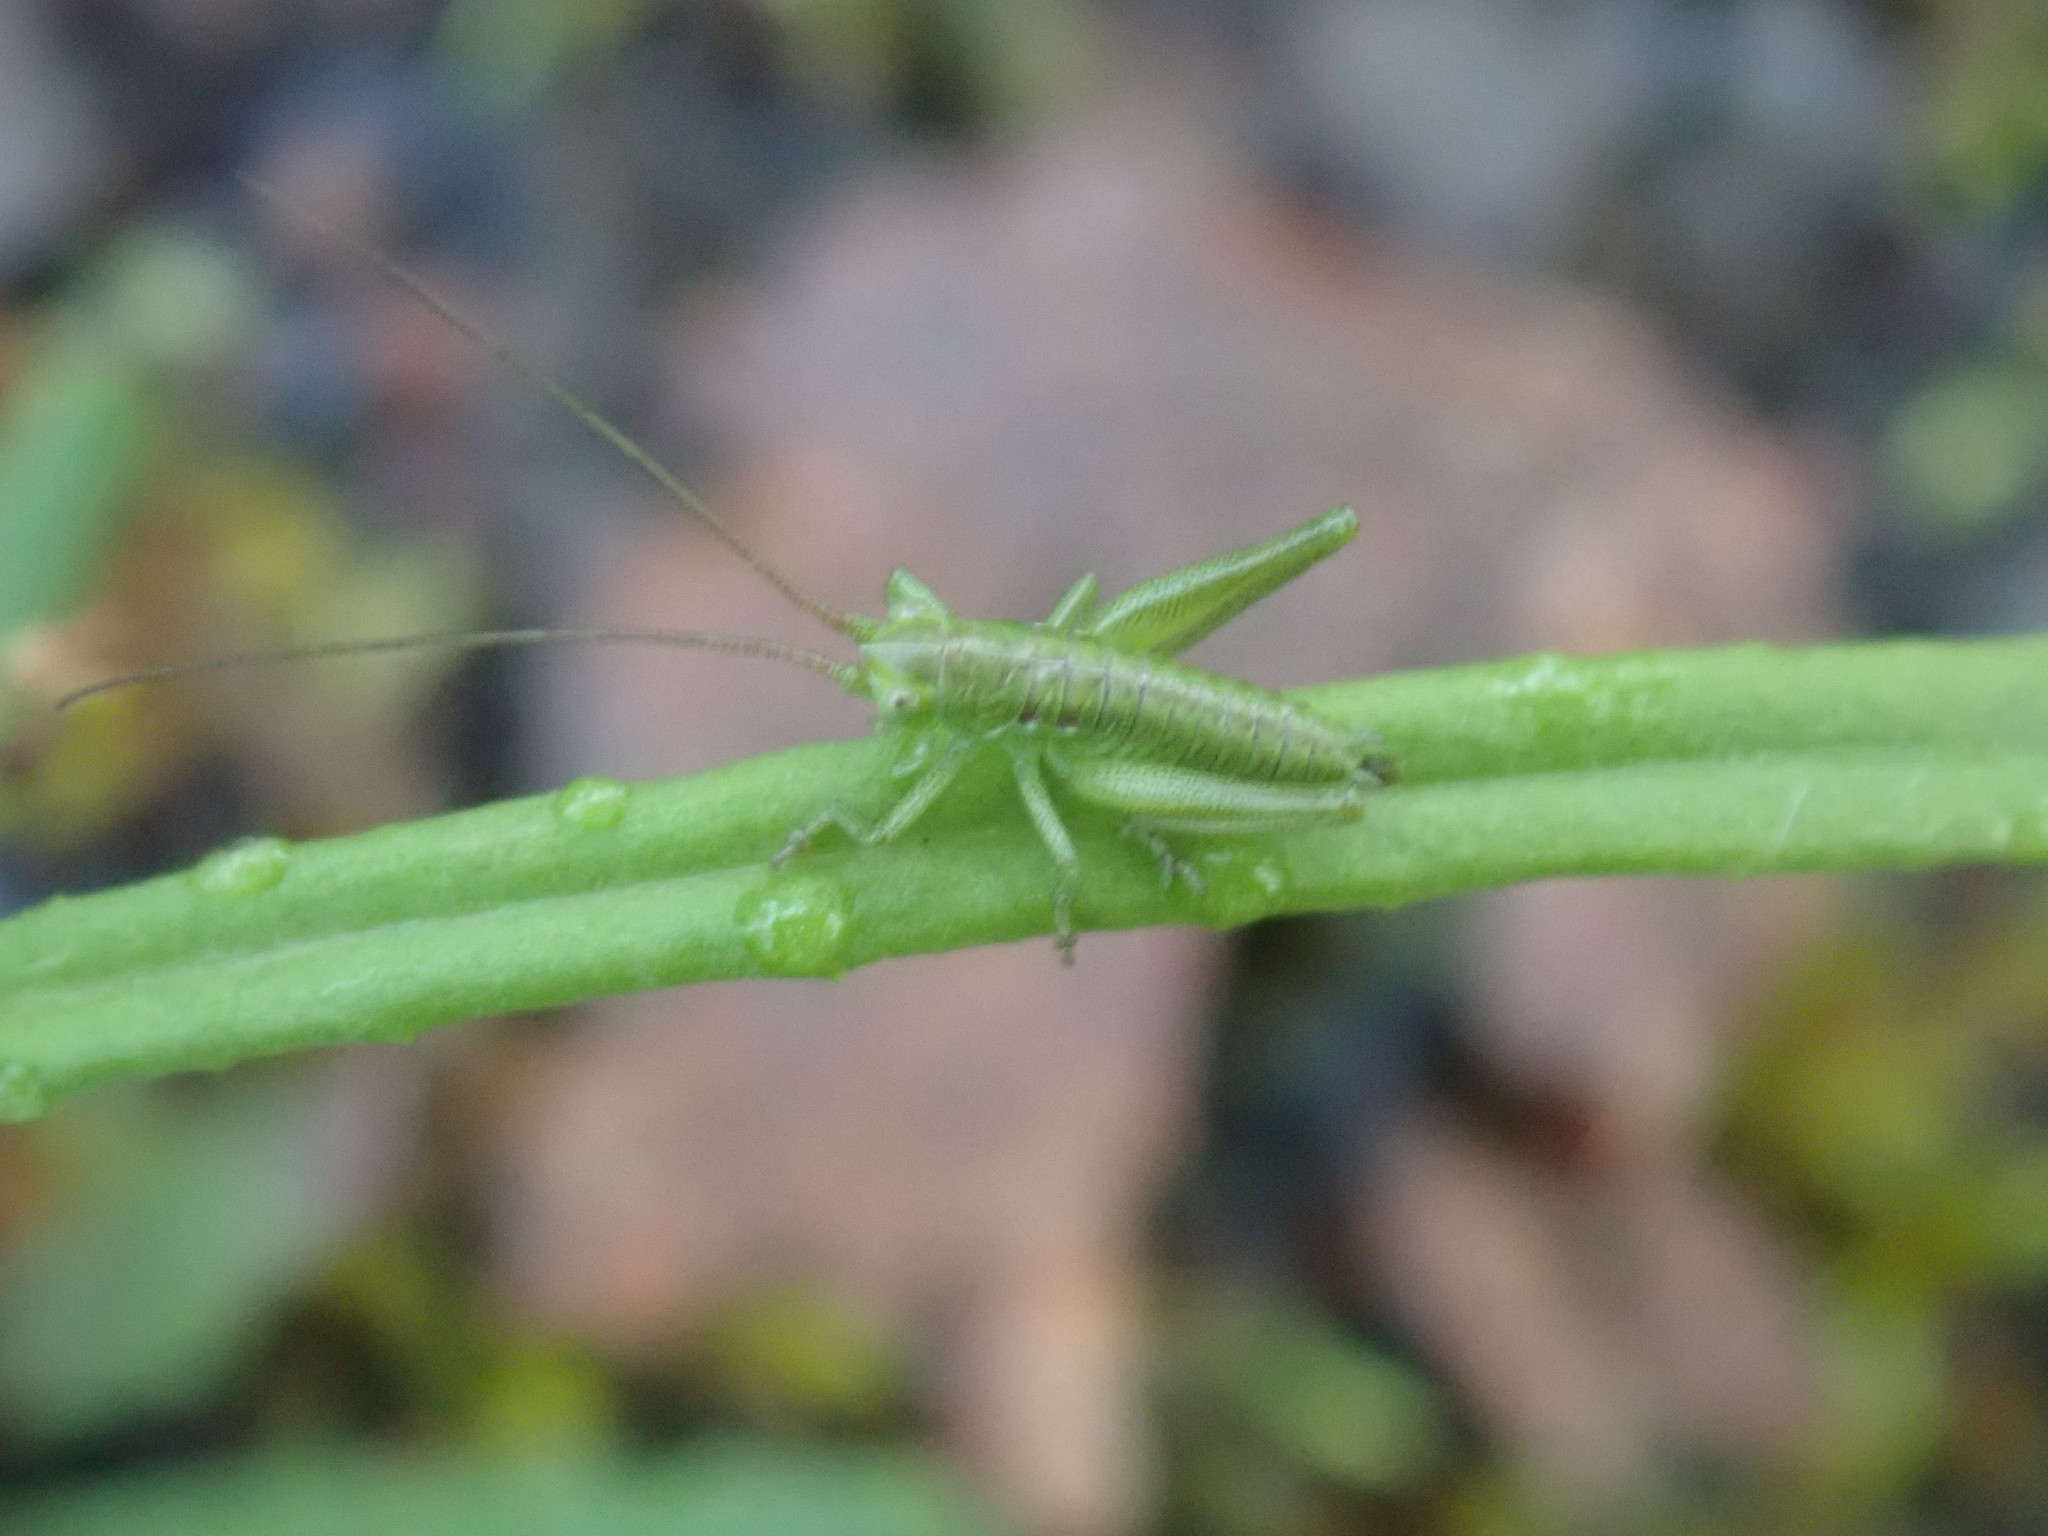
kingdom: Animalia
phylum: Arthropoda
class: Insecta
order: Orthoptera
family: Tettigoniidae
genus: Tettigonia
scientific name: Tettigonia viridissima
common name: Great green bush-cricket
